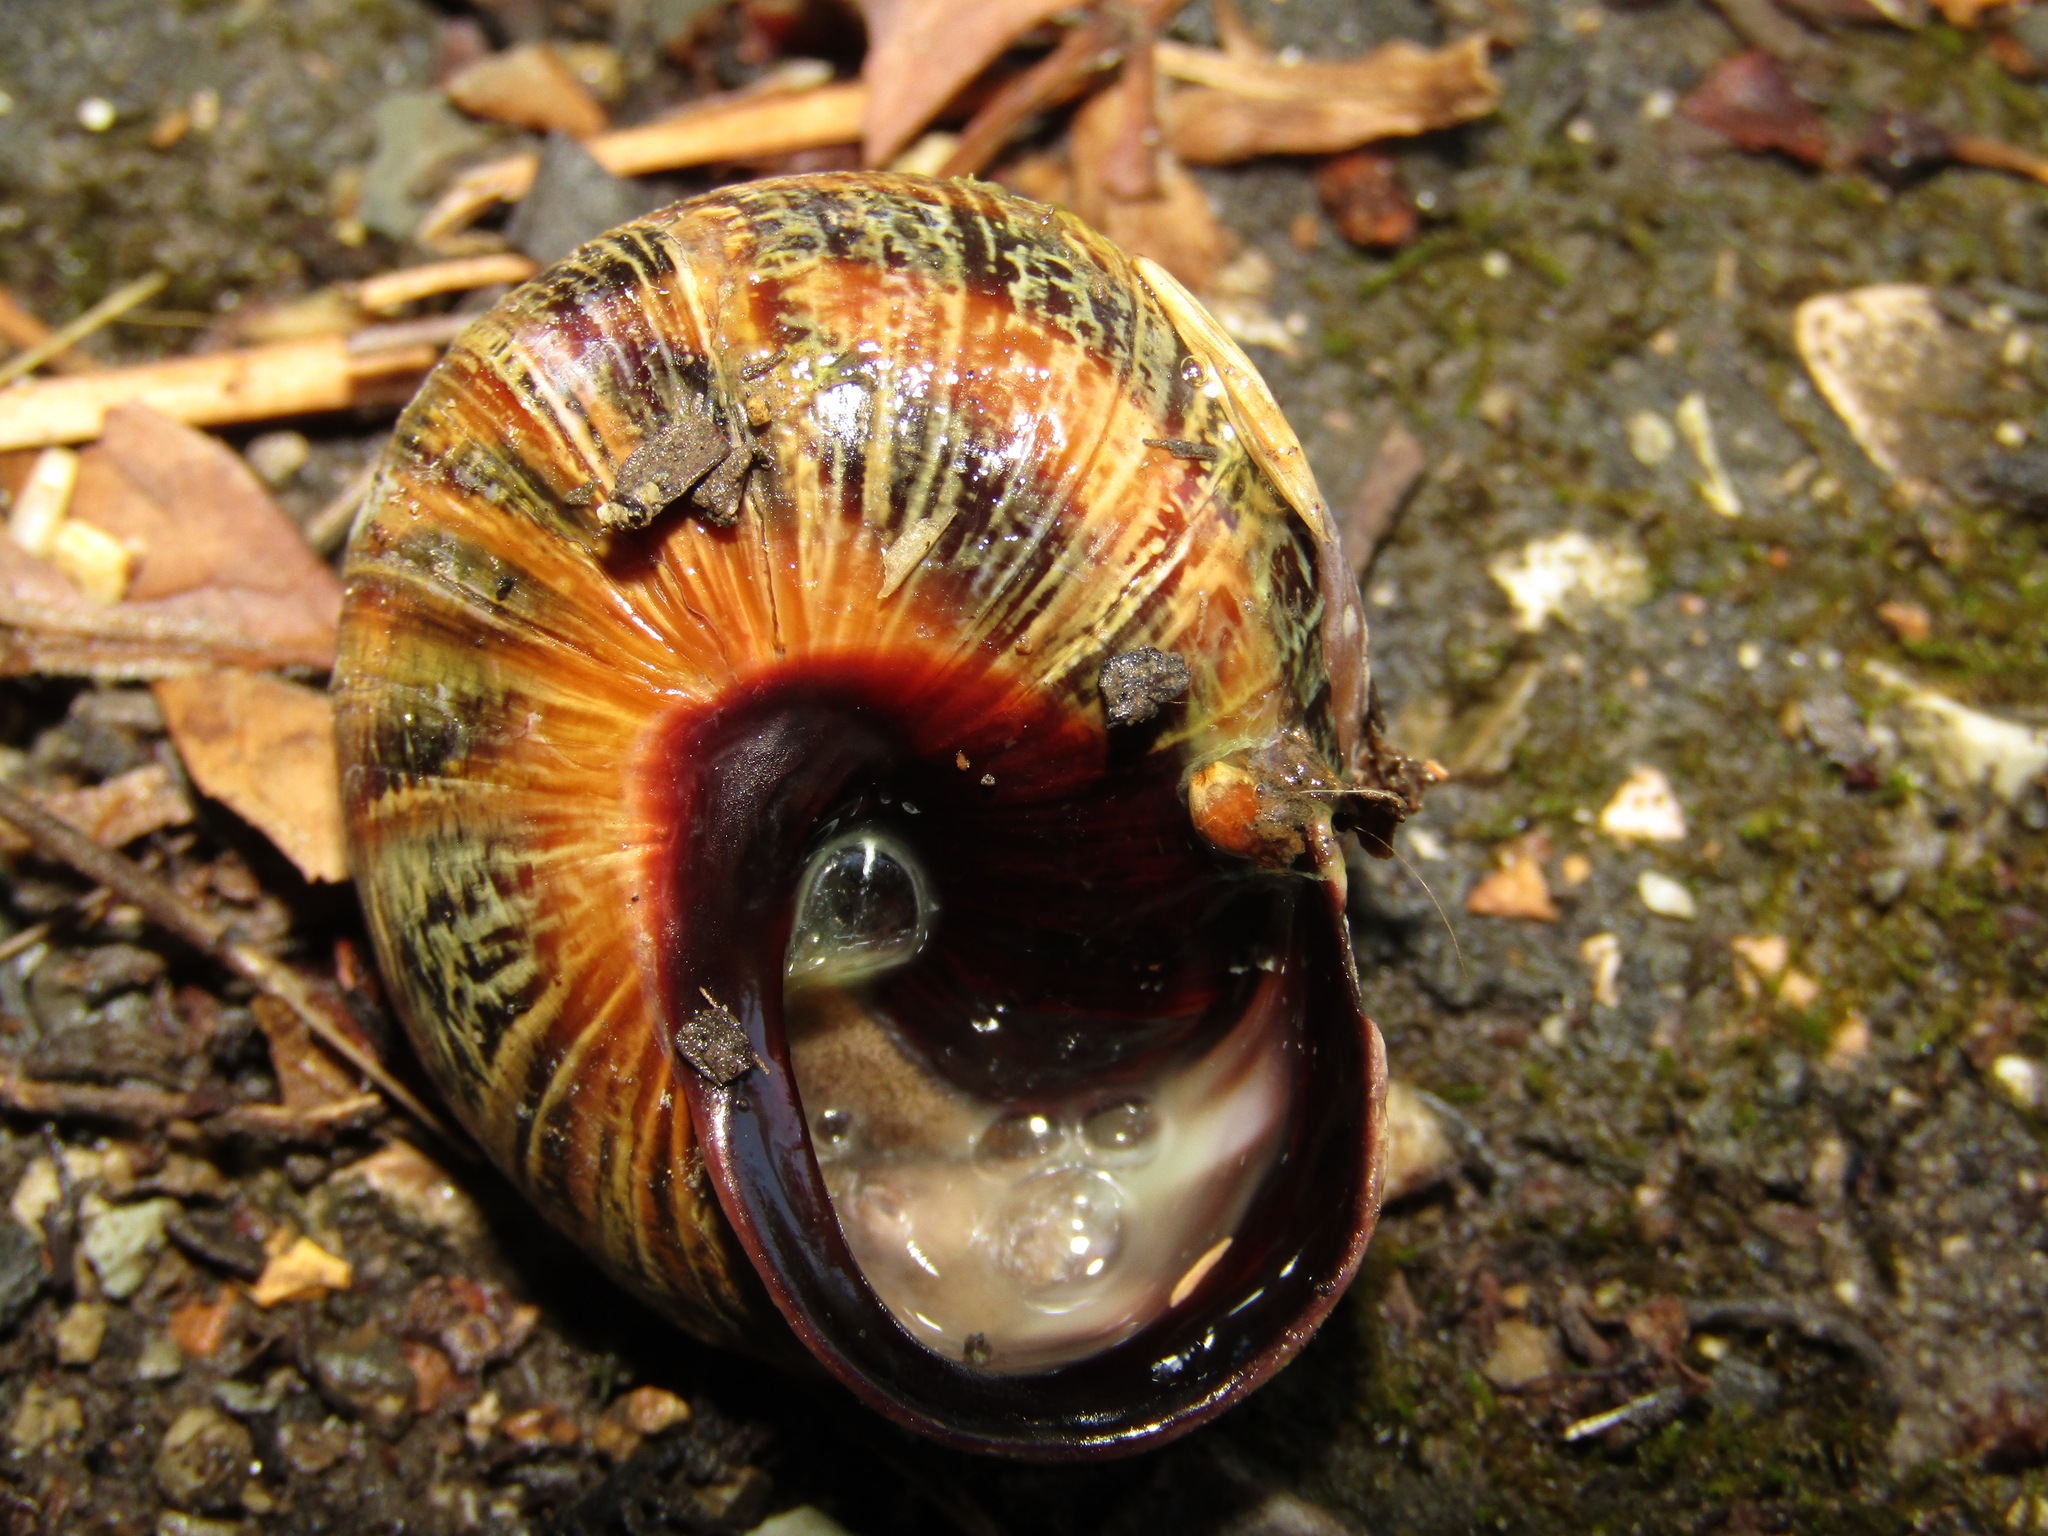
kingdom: Animalia
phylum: Mollusca
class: Gastropoda
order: Stylommatophora
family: Helicidae
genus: Caucasotachea
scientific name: Caucasotachea atrolabiata
